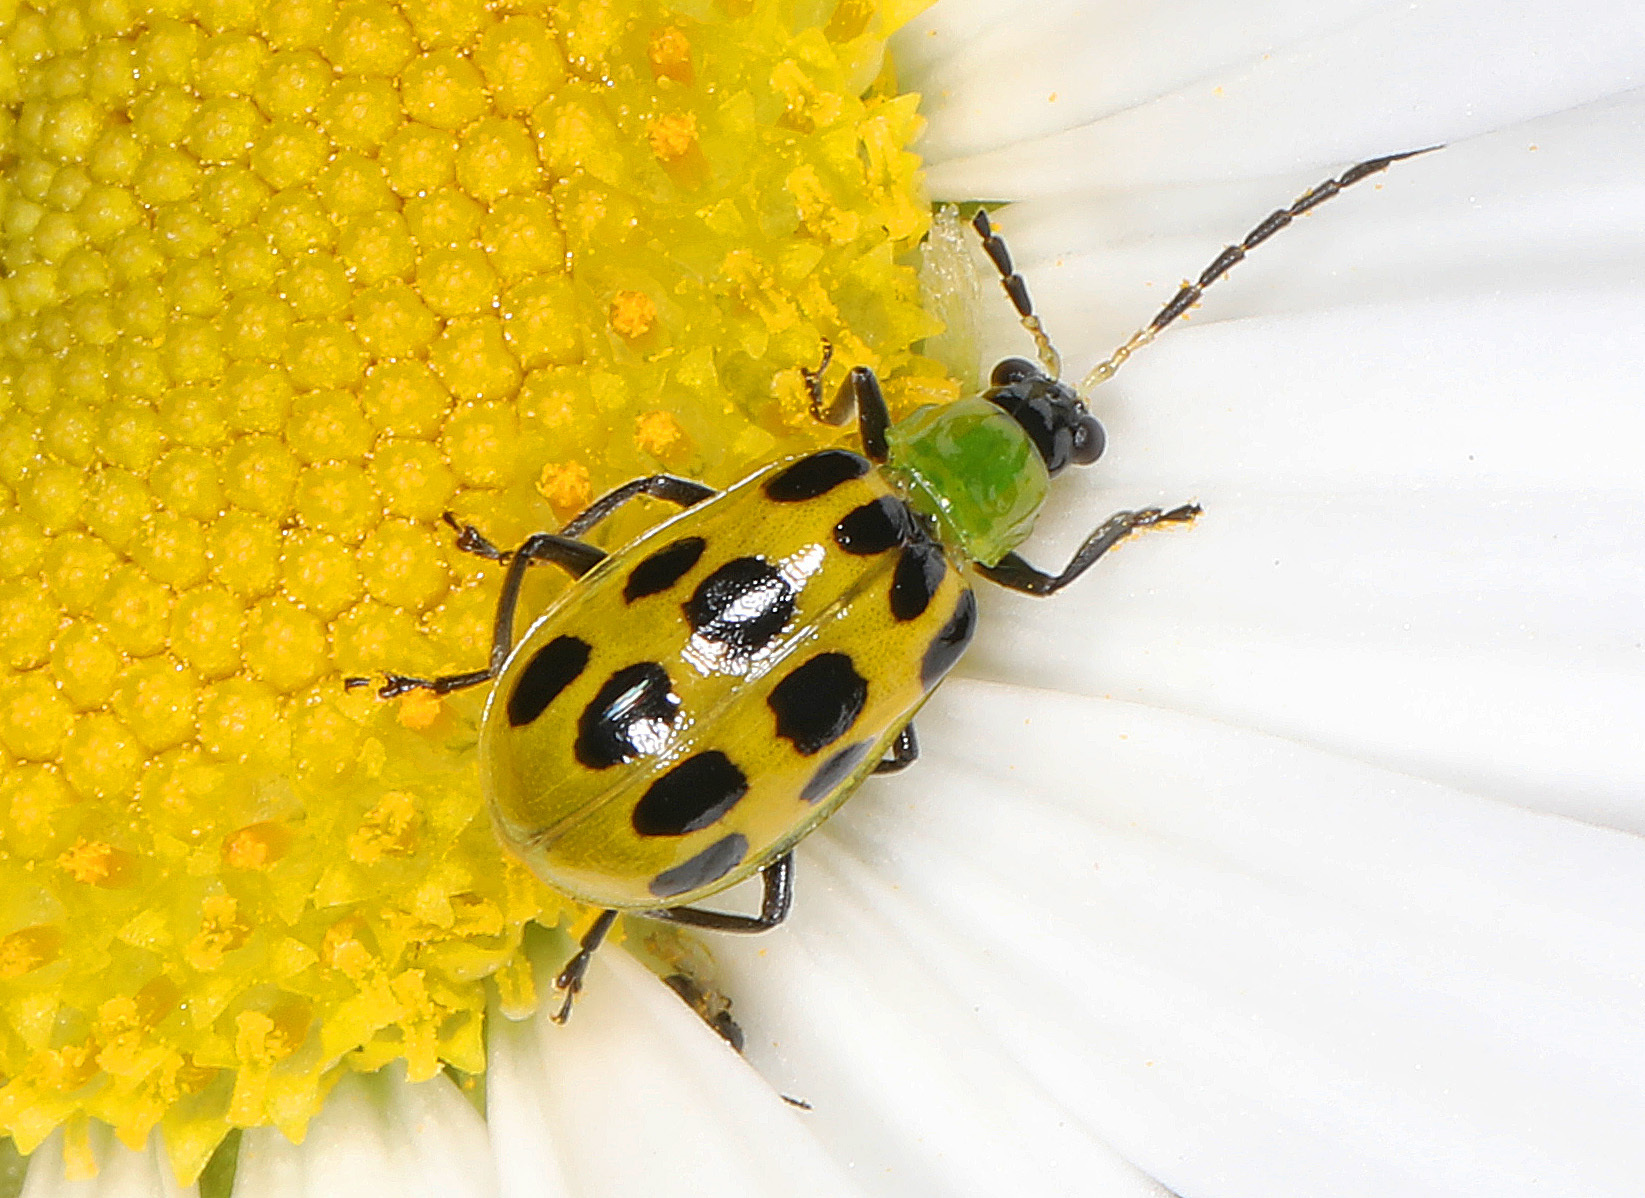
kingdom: Animalia
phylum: Arthropoda
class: Insecta
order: Coleoptera
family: Chrysomelidae
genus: Diabrotica
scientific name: Diabrotica undecimpunctata
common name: Spotted cucumber beetle
